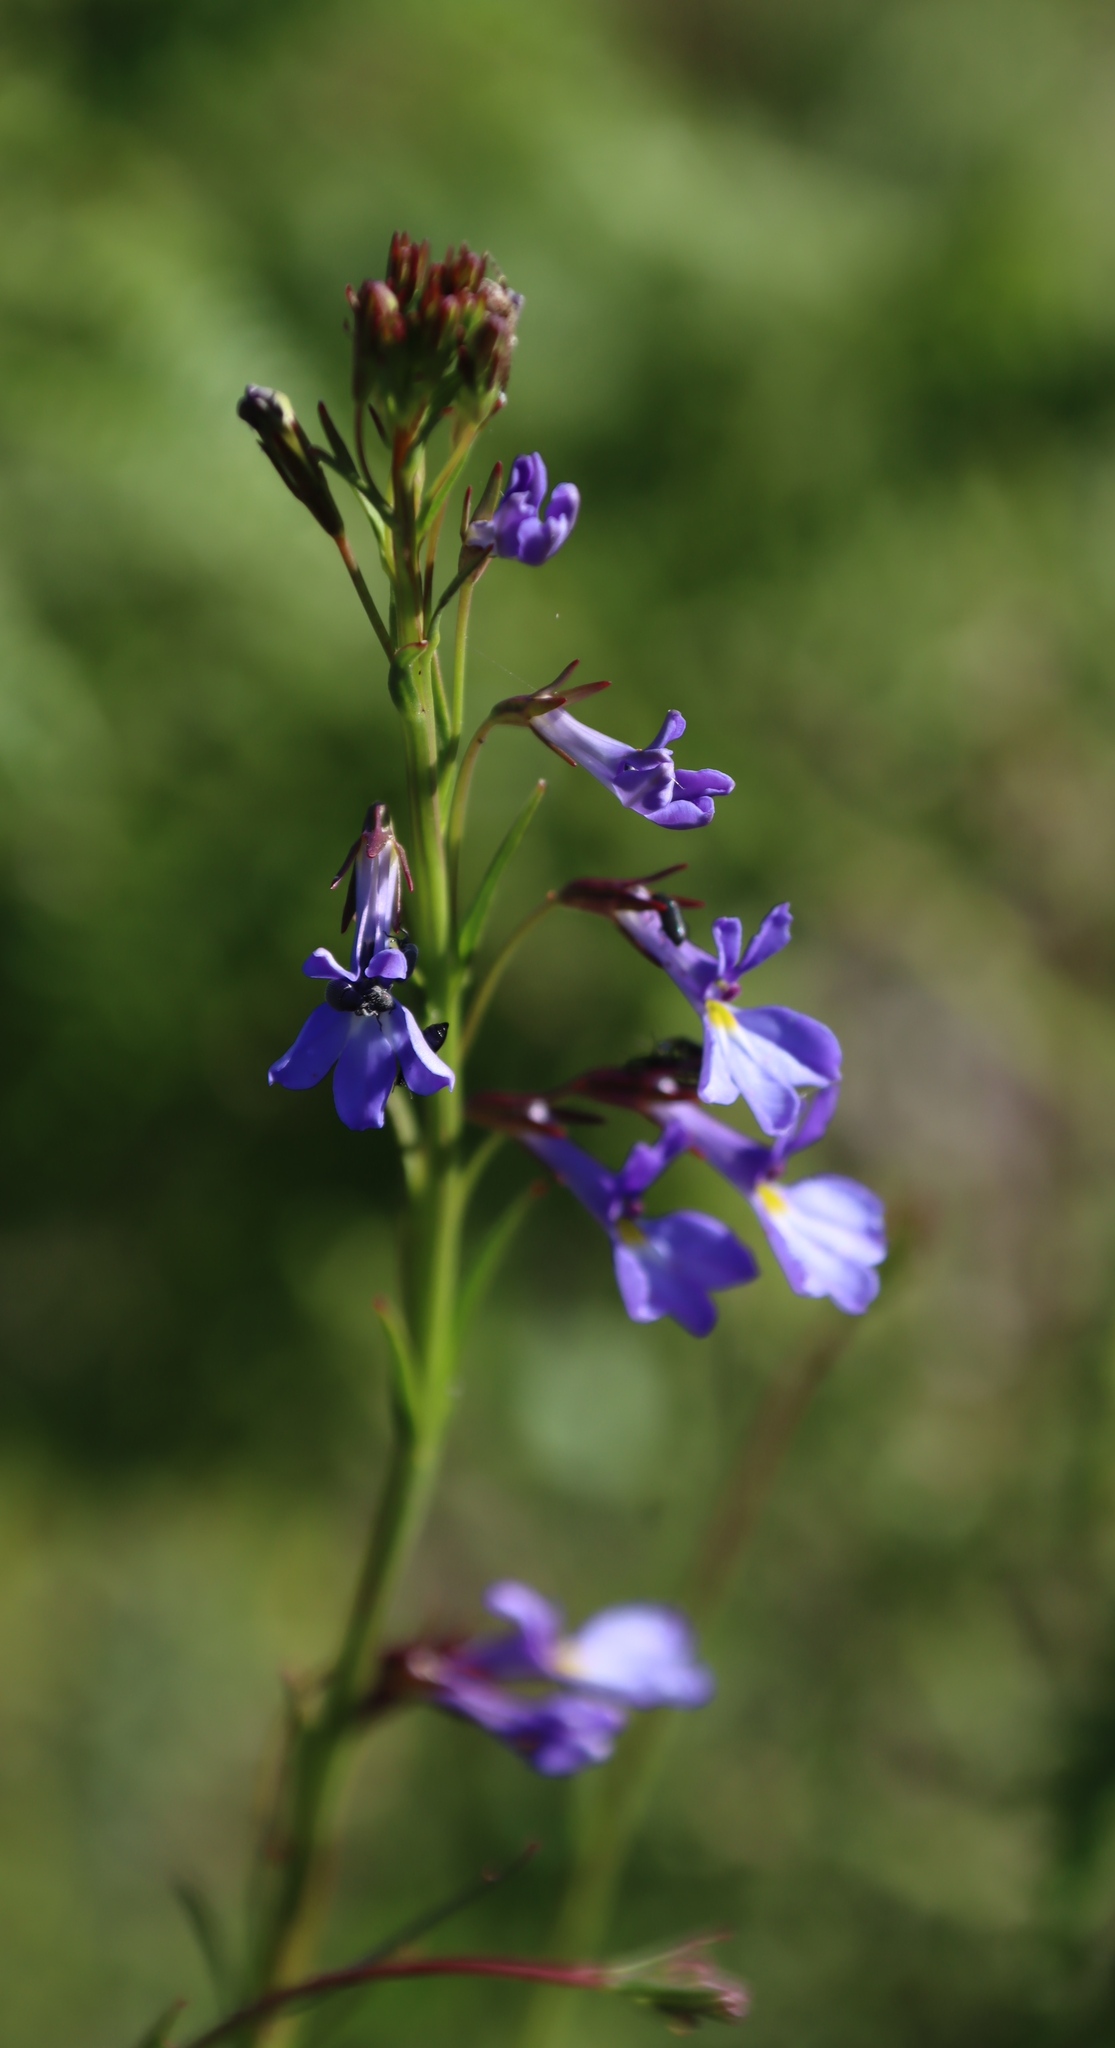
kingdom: Plantae
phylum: Tracheophyta
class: Magnoliopsida
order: Asterales
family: Campanulaceae
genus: Lobelia
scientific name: Lobelia comosa
